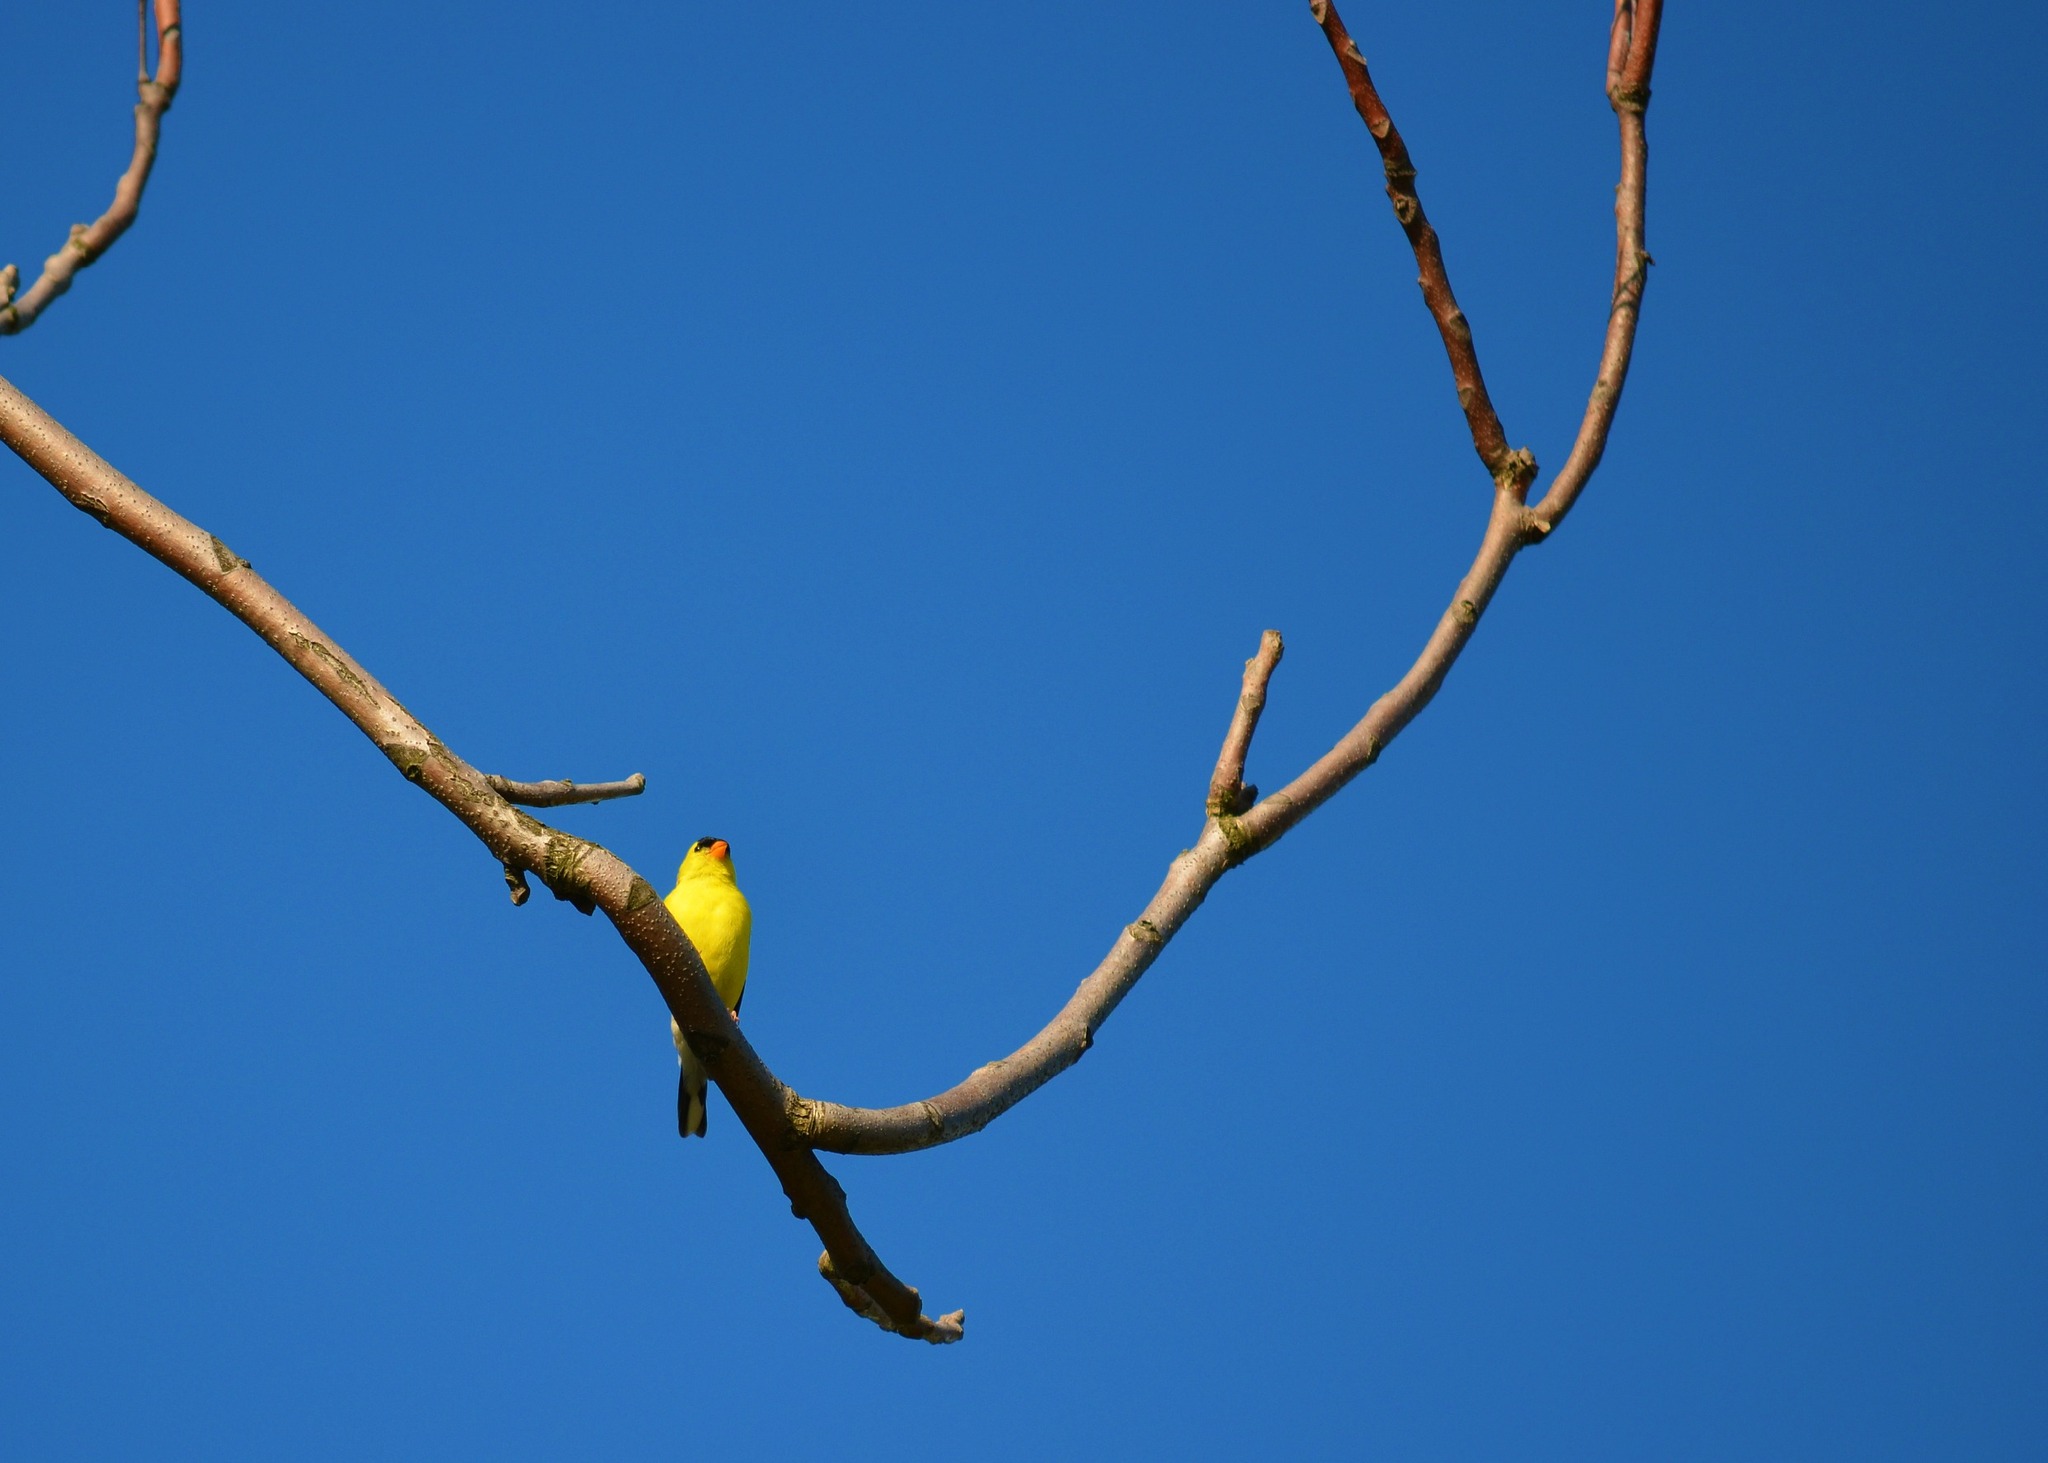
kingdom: Animalia
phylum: Chordata
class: Aves
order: Passeriformes
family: Fringillidae
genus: Spinus
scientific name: Spinus tristis
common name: American goldfinch
